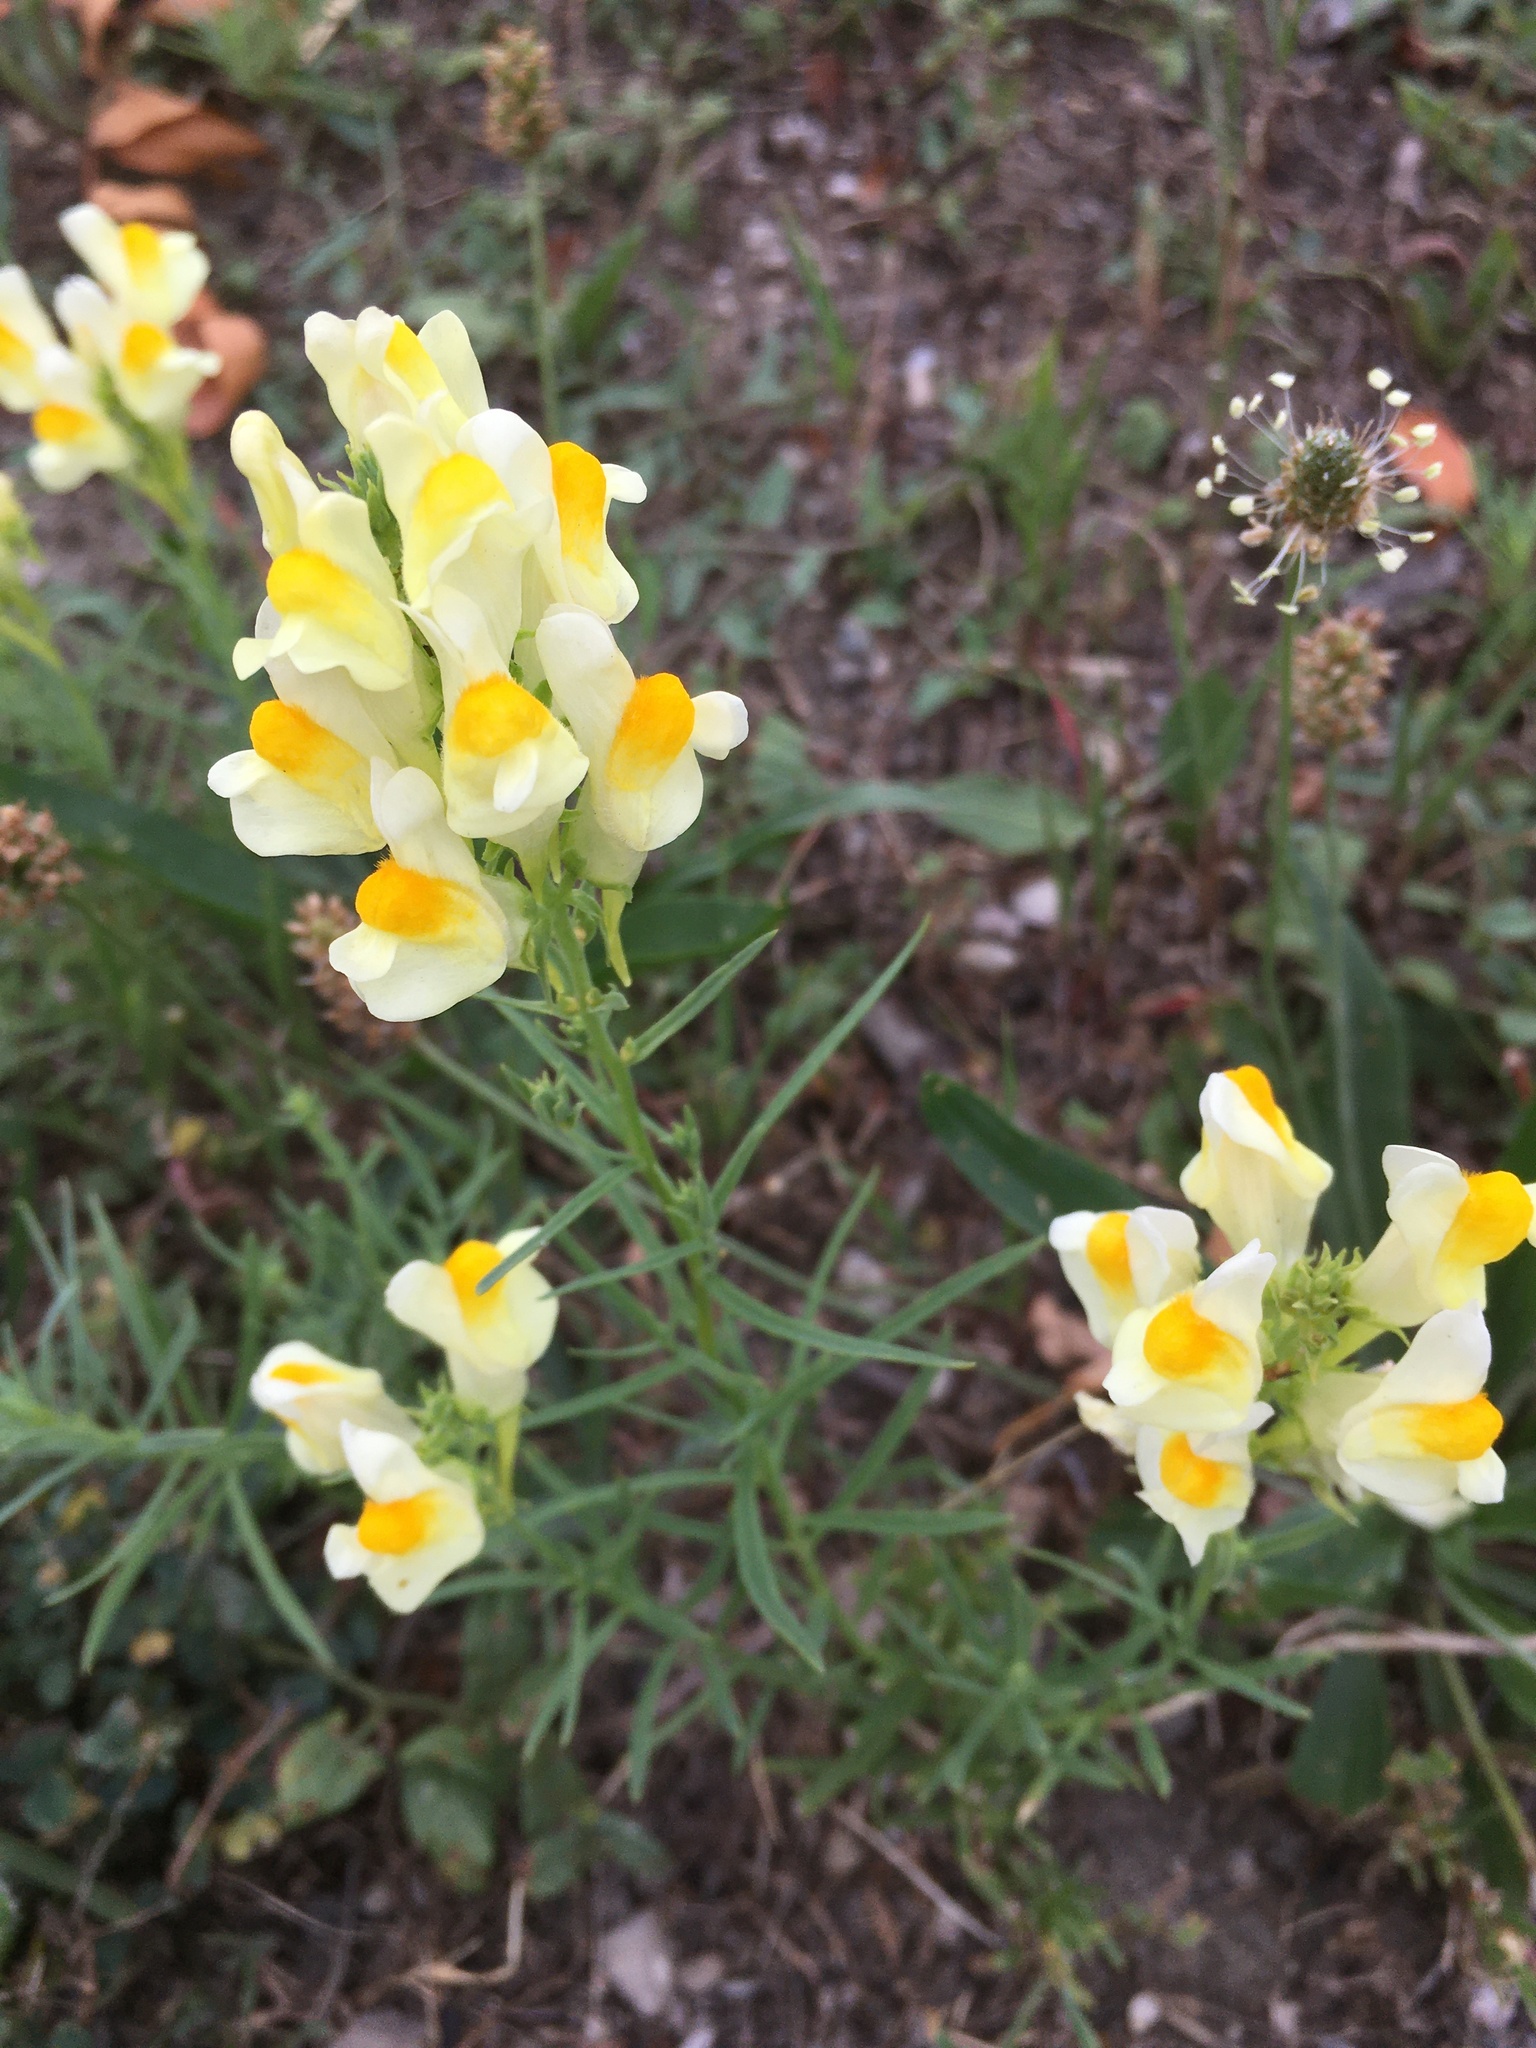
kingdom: Plantae
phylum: Tracheophyta
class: Magnoliopsida
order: Lamiales
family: Plantaginaceae
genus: Linaria
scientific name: Linaria vulgaris
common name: Butter and eggs
